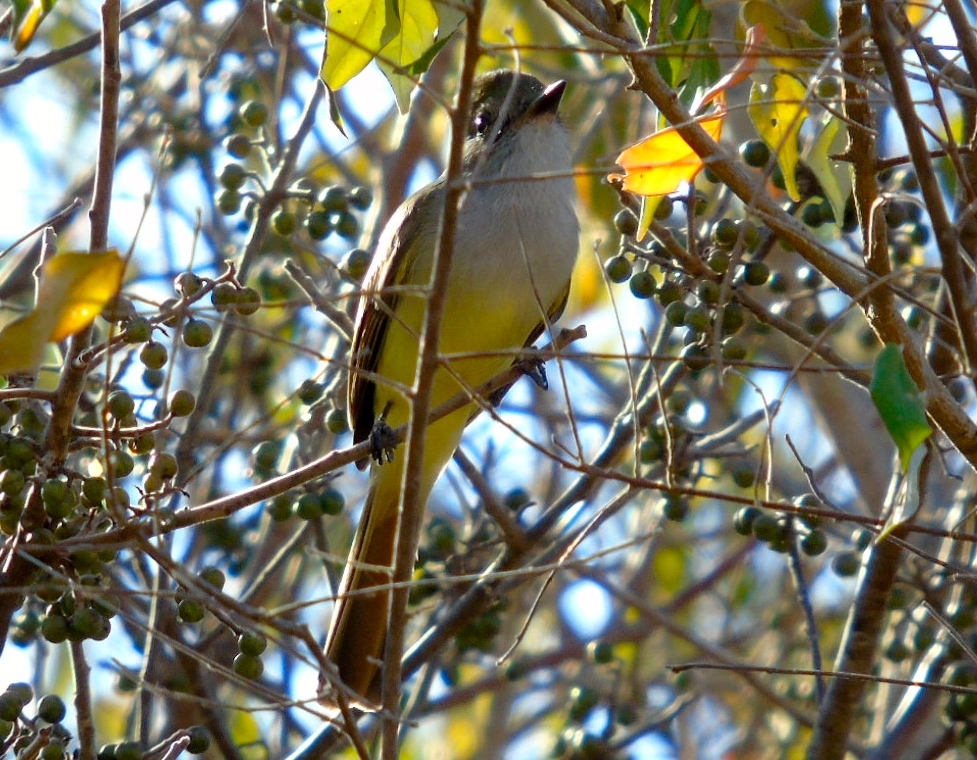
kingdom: Animalia
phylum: Chordata
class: Aves
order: Passeriformes
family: Tyrannidae
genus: Myiarchus
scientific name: Myiarchus
